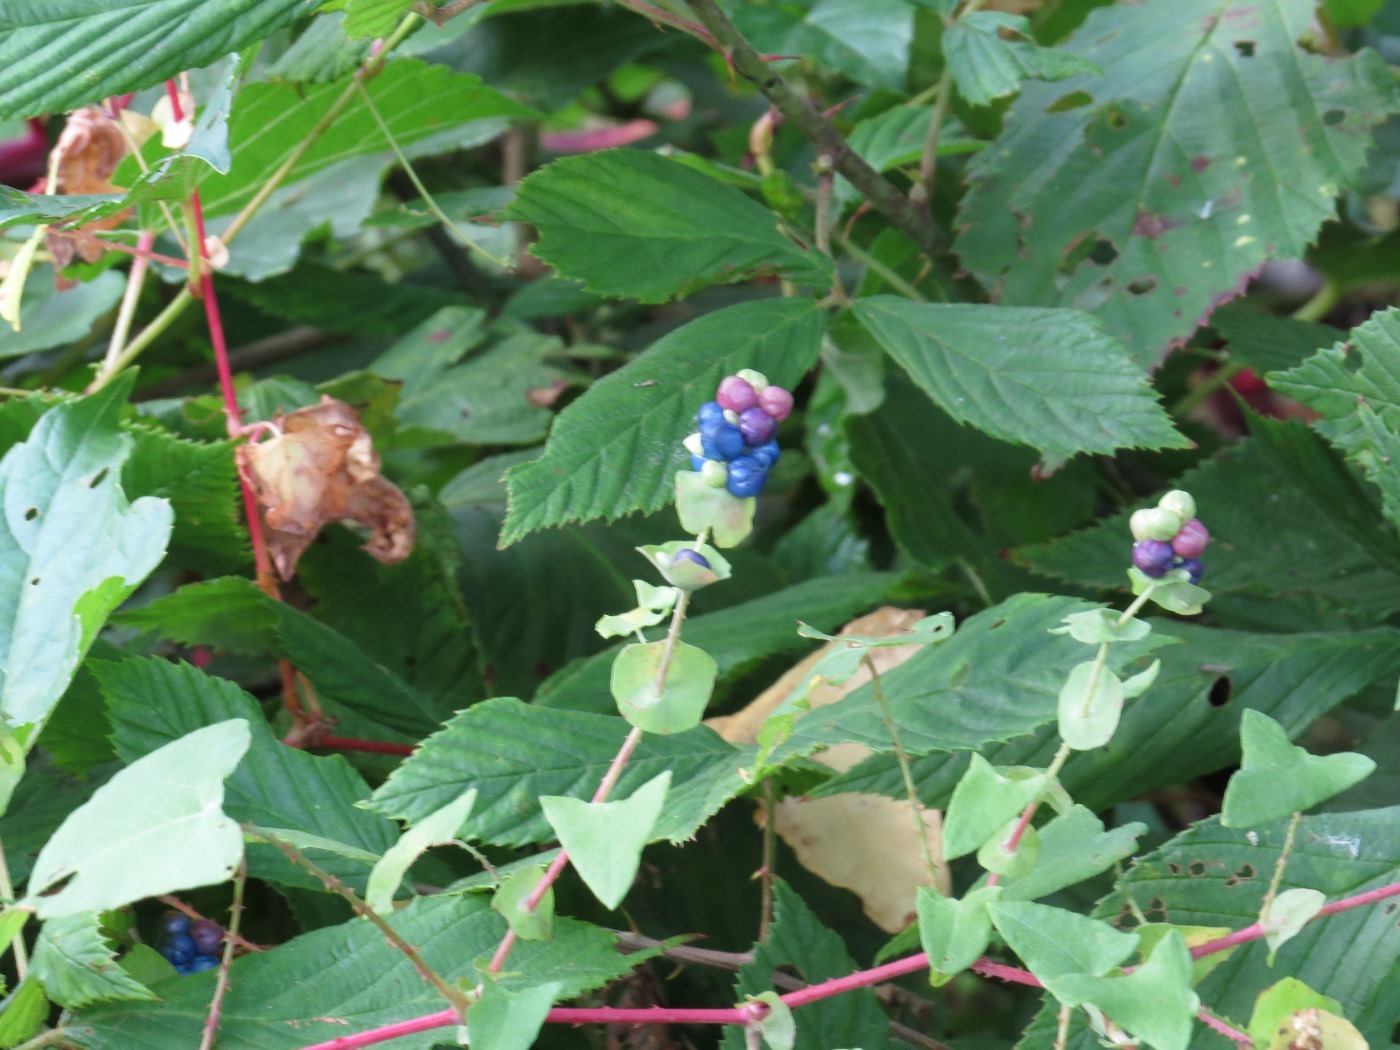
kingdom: Plantae
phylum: Tracheophyta
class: Magnoliopsida
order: Caryophyllales
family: Polygonaceae
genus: Persicaria
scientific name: Persicaria perfoliata
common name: Asiatic tearthumb
